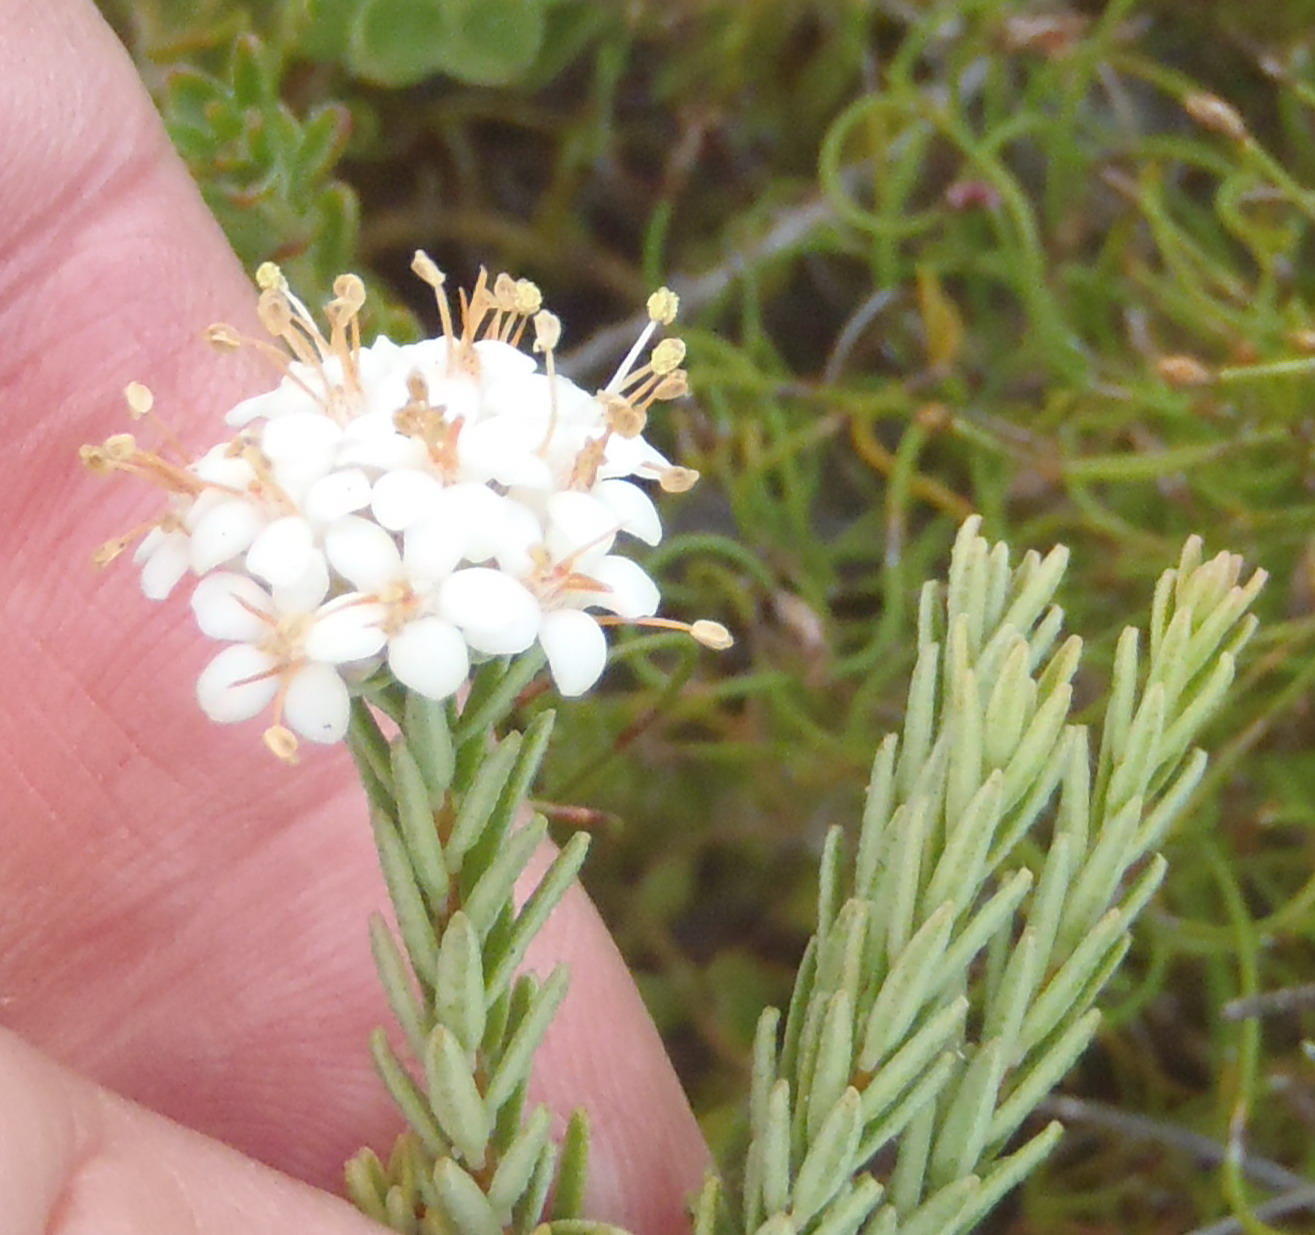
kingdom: Plantae
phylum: Tracheophyta
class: Magnoliopsida
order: Sapindales
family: Rutaceae
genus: Macrostylis
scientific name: Macrostylis villosa
